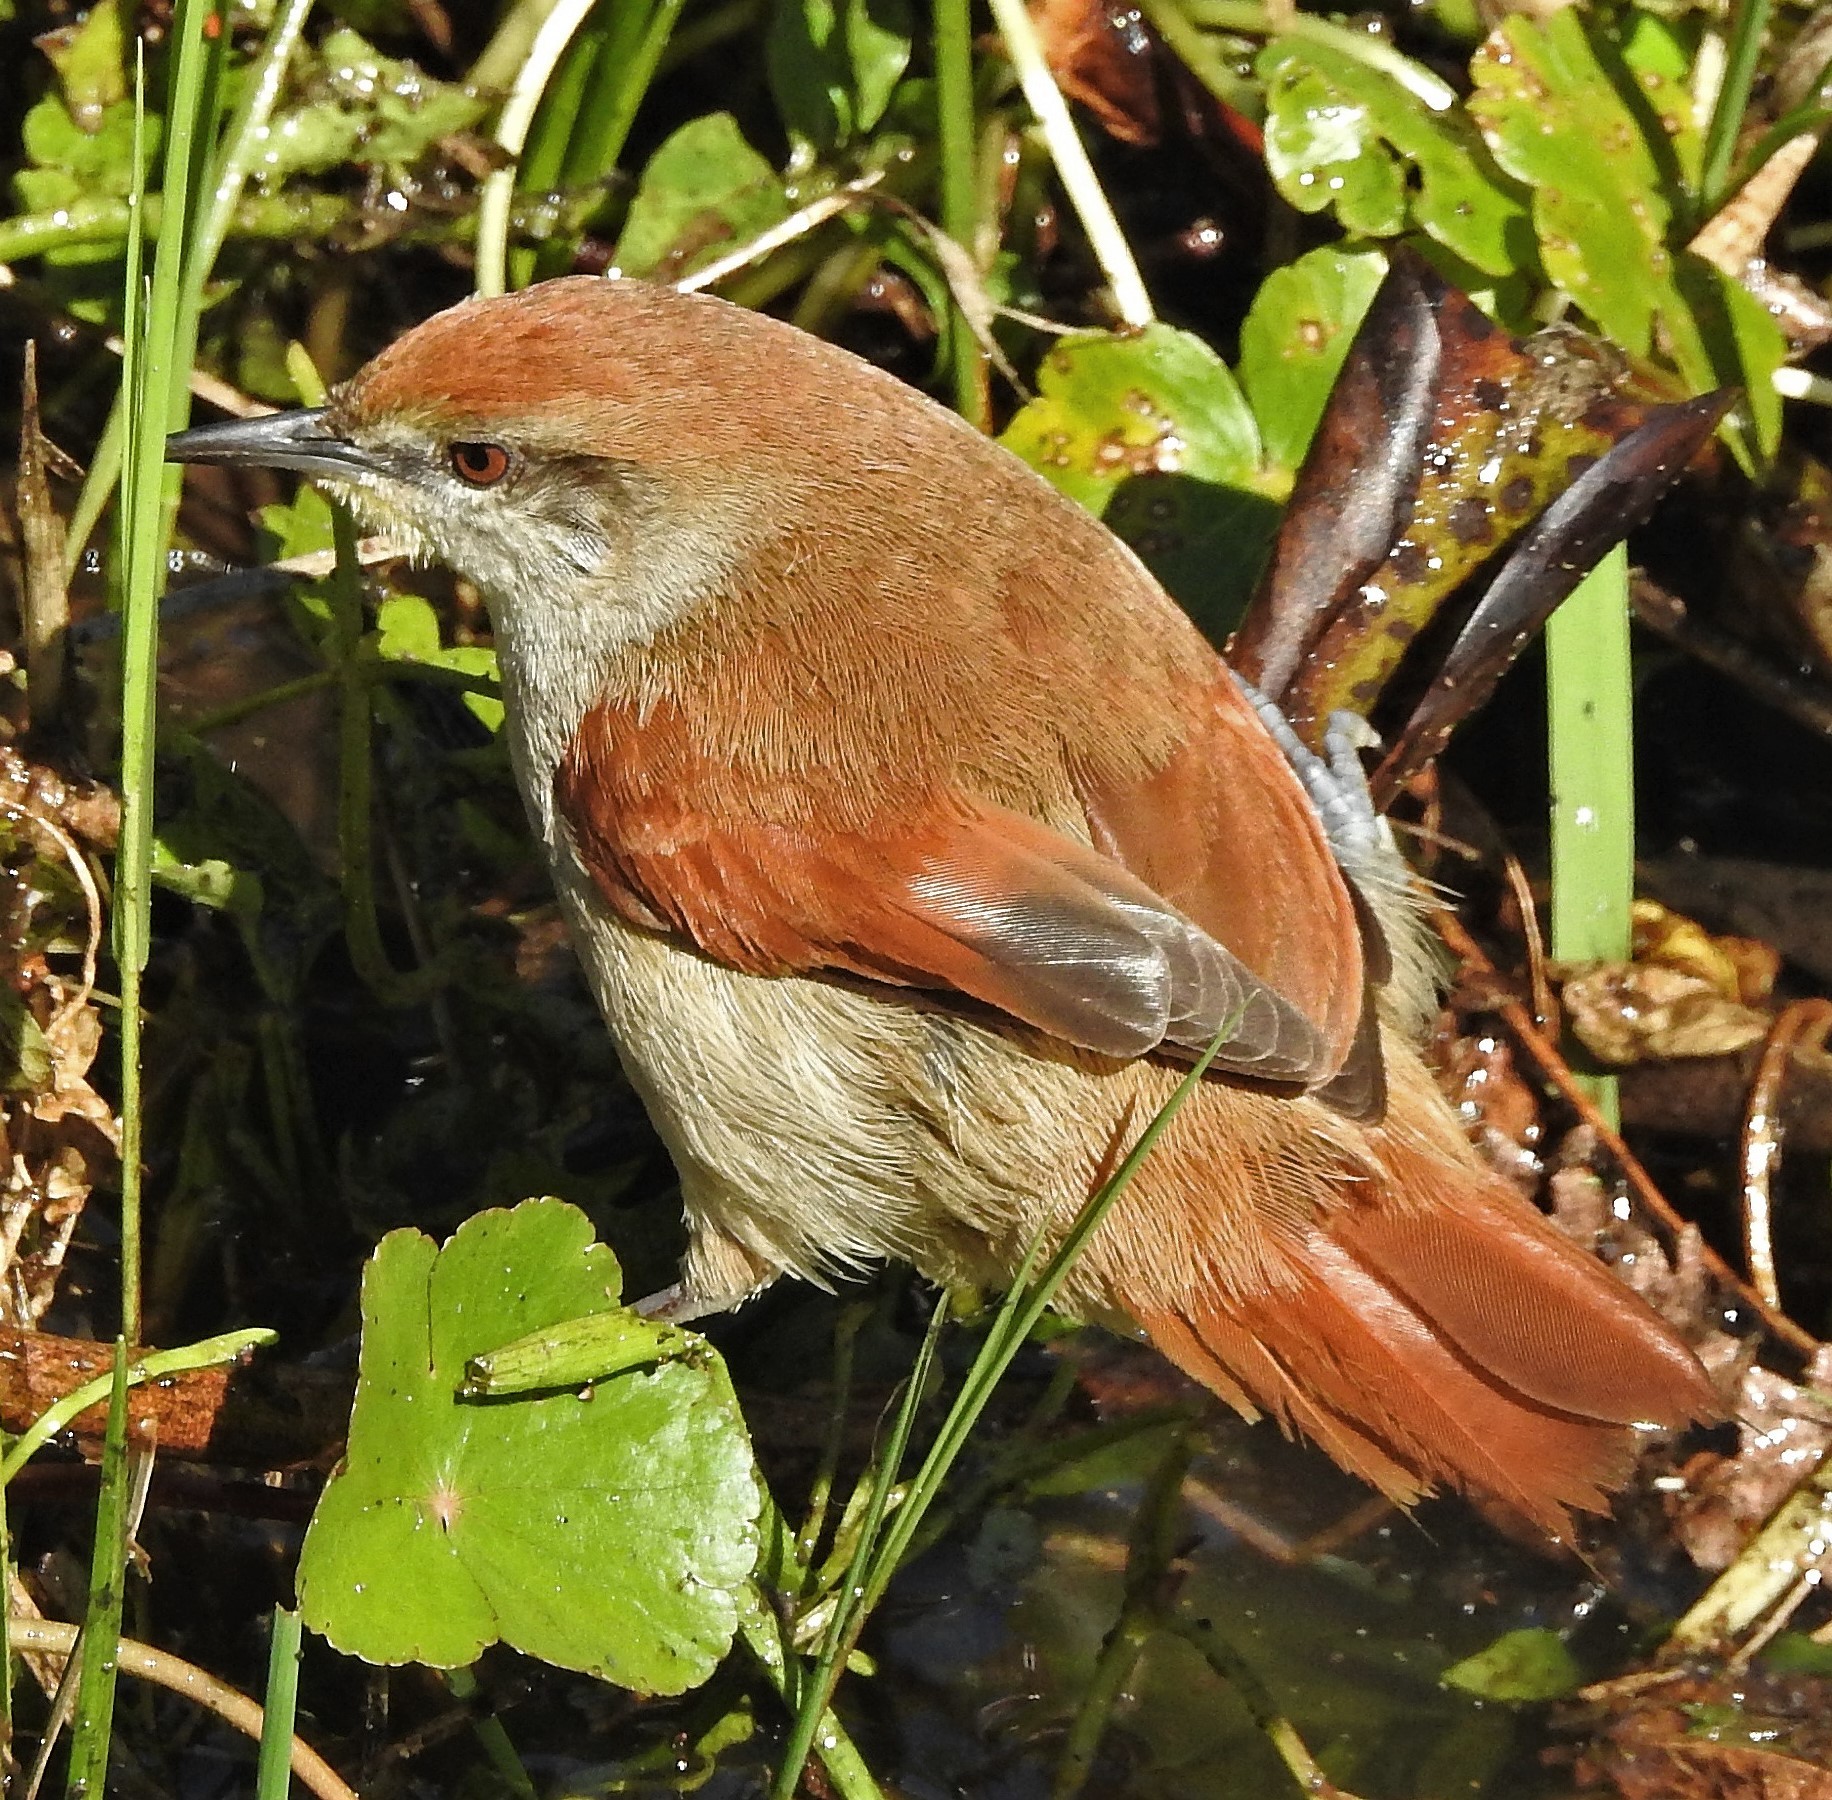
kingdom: Animalia
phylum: Chordata
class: Aves
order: Passeriformes
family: Furnariidae
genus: Certhiaxis
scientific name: Certhiaxis cinnamomeus
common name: Yellow-chinned spinetail
